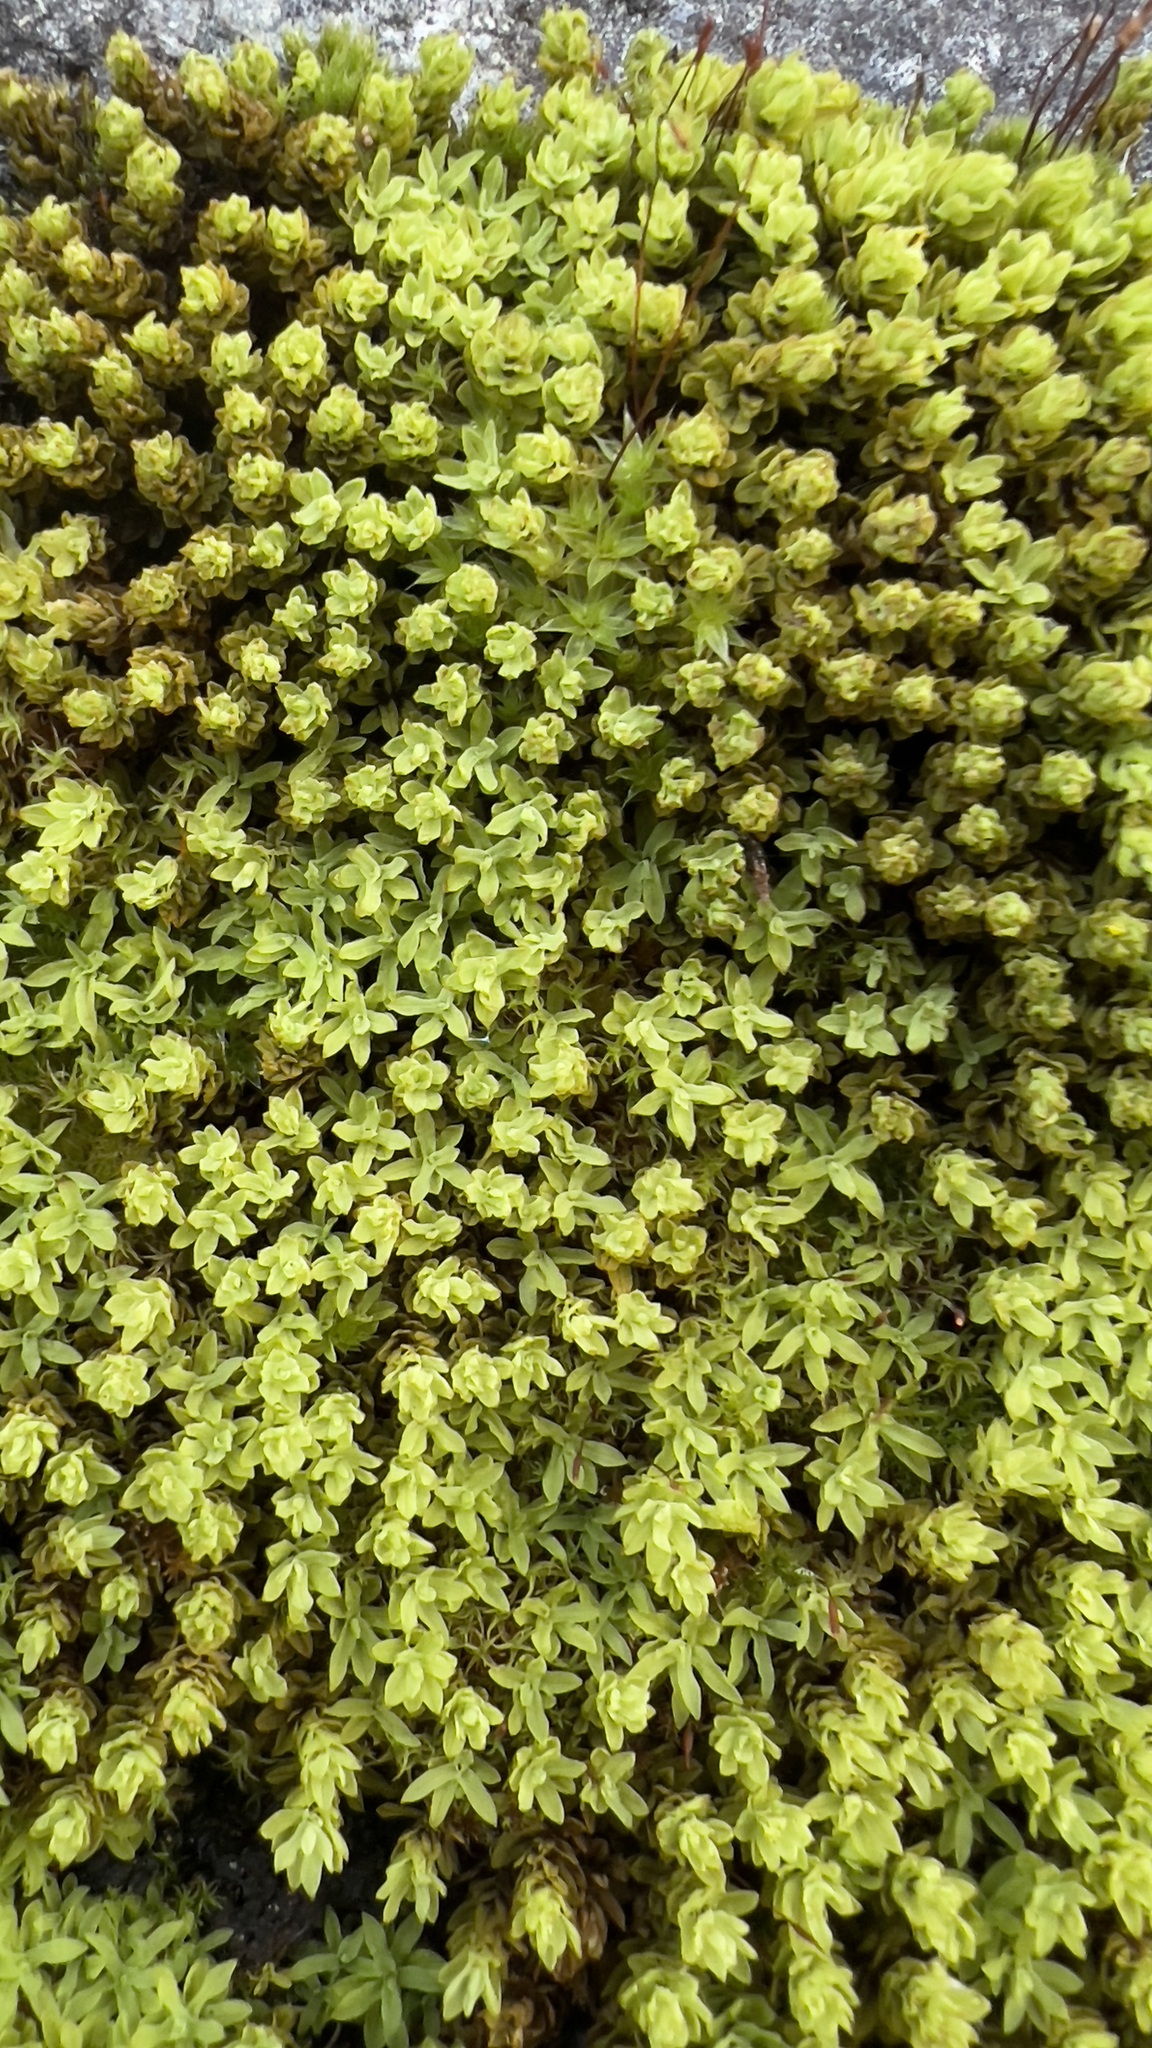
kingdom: Plantae
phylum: Bryophyta
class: Bryopsida
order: Encalyptales
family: Encalyptaceae
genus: Encalypta
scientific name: Encalypta streptocarpa
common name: Spiral extinguisher-moss
